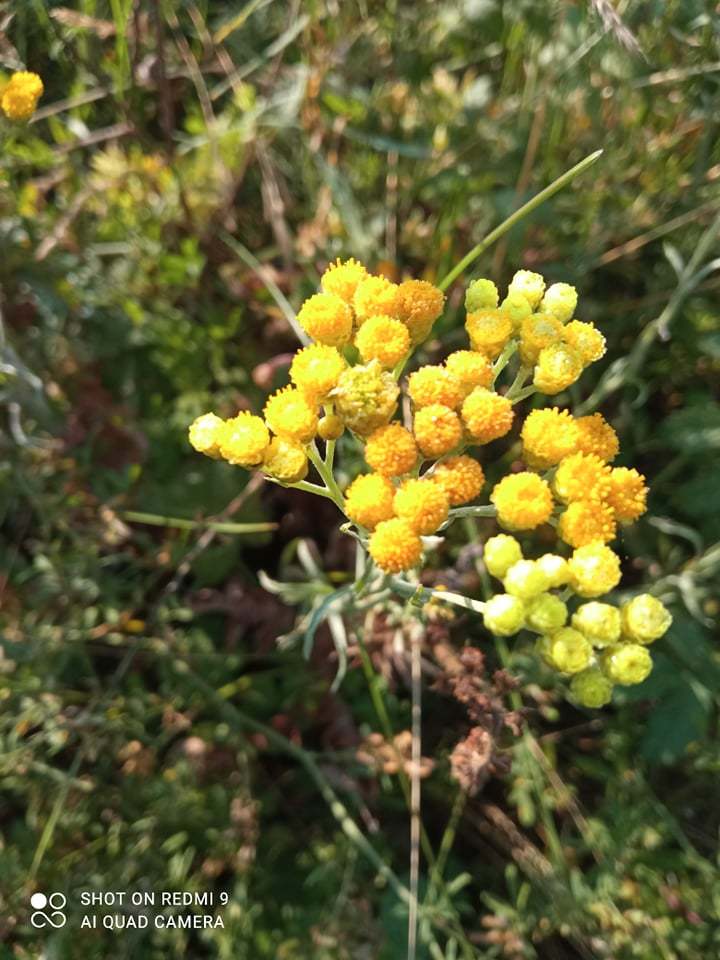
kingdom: Plantae
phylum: Tracheophyta
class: Magnoliopsida
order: Asterales
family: Asteraceae
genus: Helichrysum
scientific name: Helichrysum arenarium
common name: Strawflower
